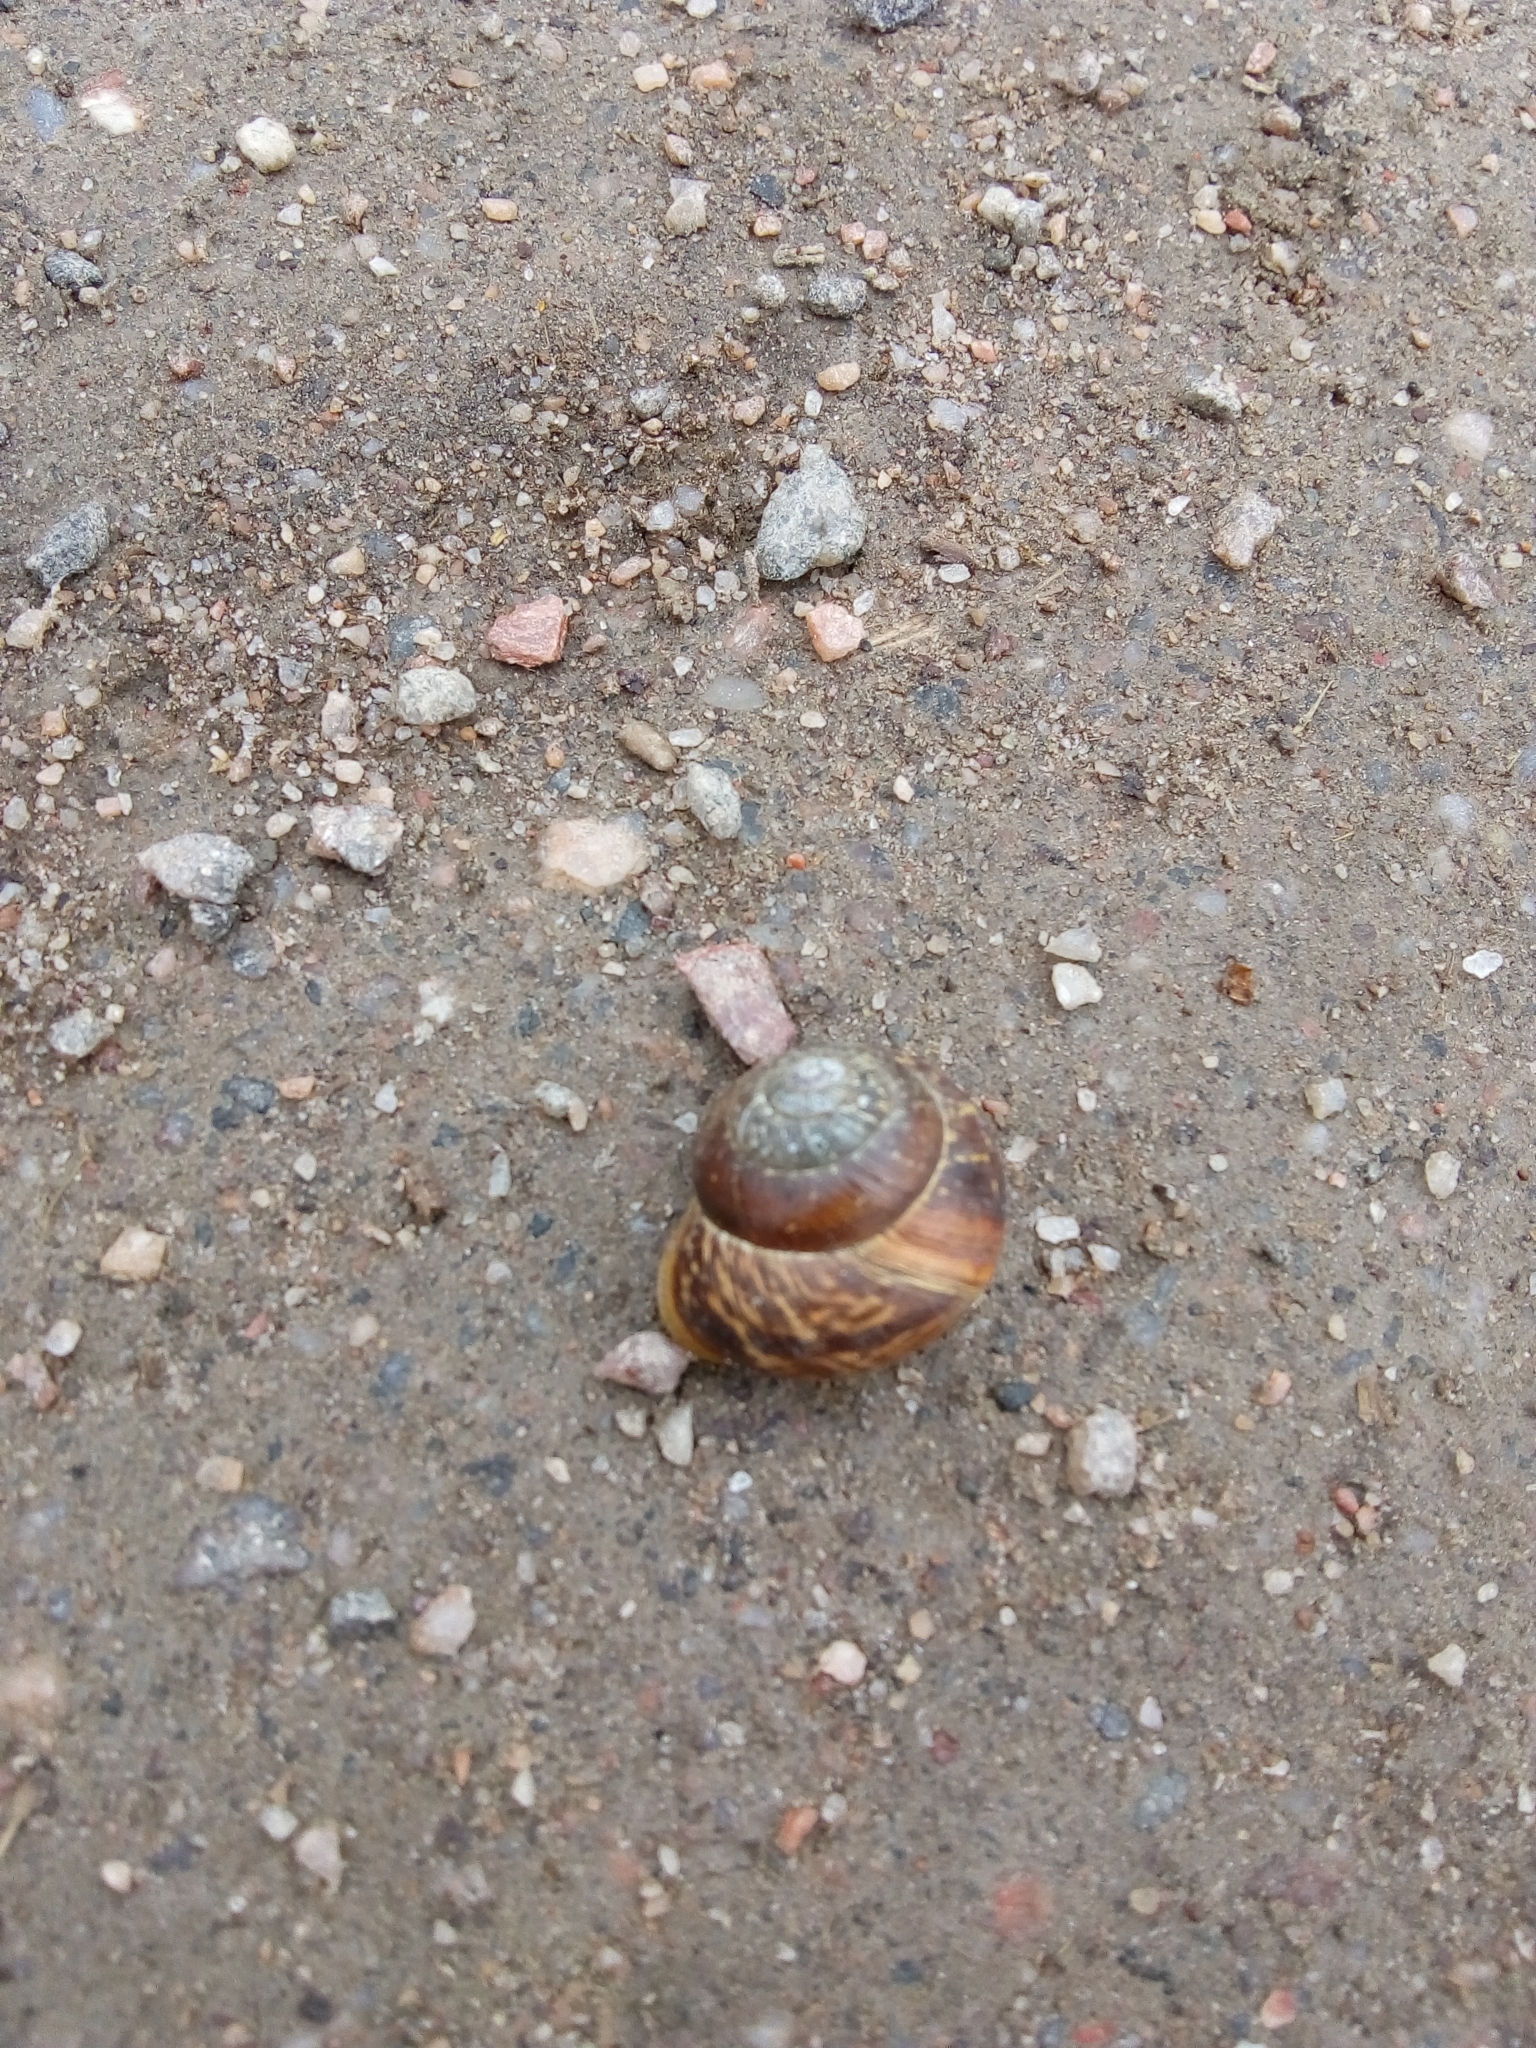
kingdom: Animalia
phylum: Mollusca
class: Gastropoda
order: Stylommatophora
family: Helicidae
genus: Arianta
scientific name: Arianta arbustorum
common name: Copse snail
